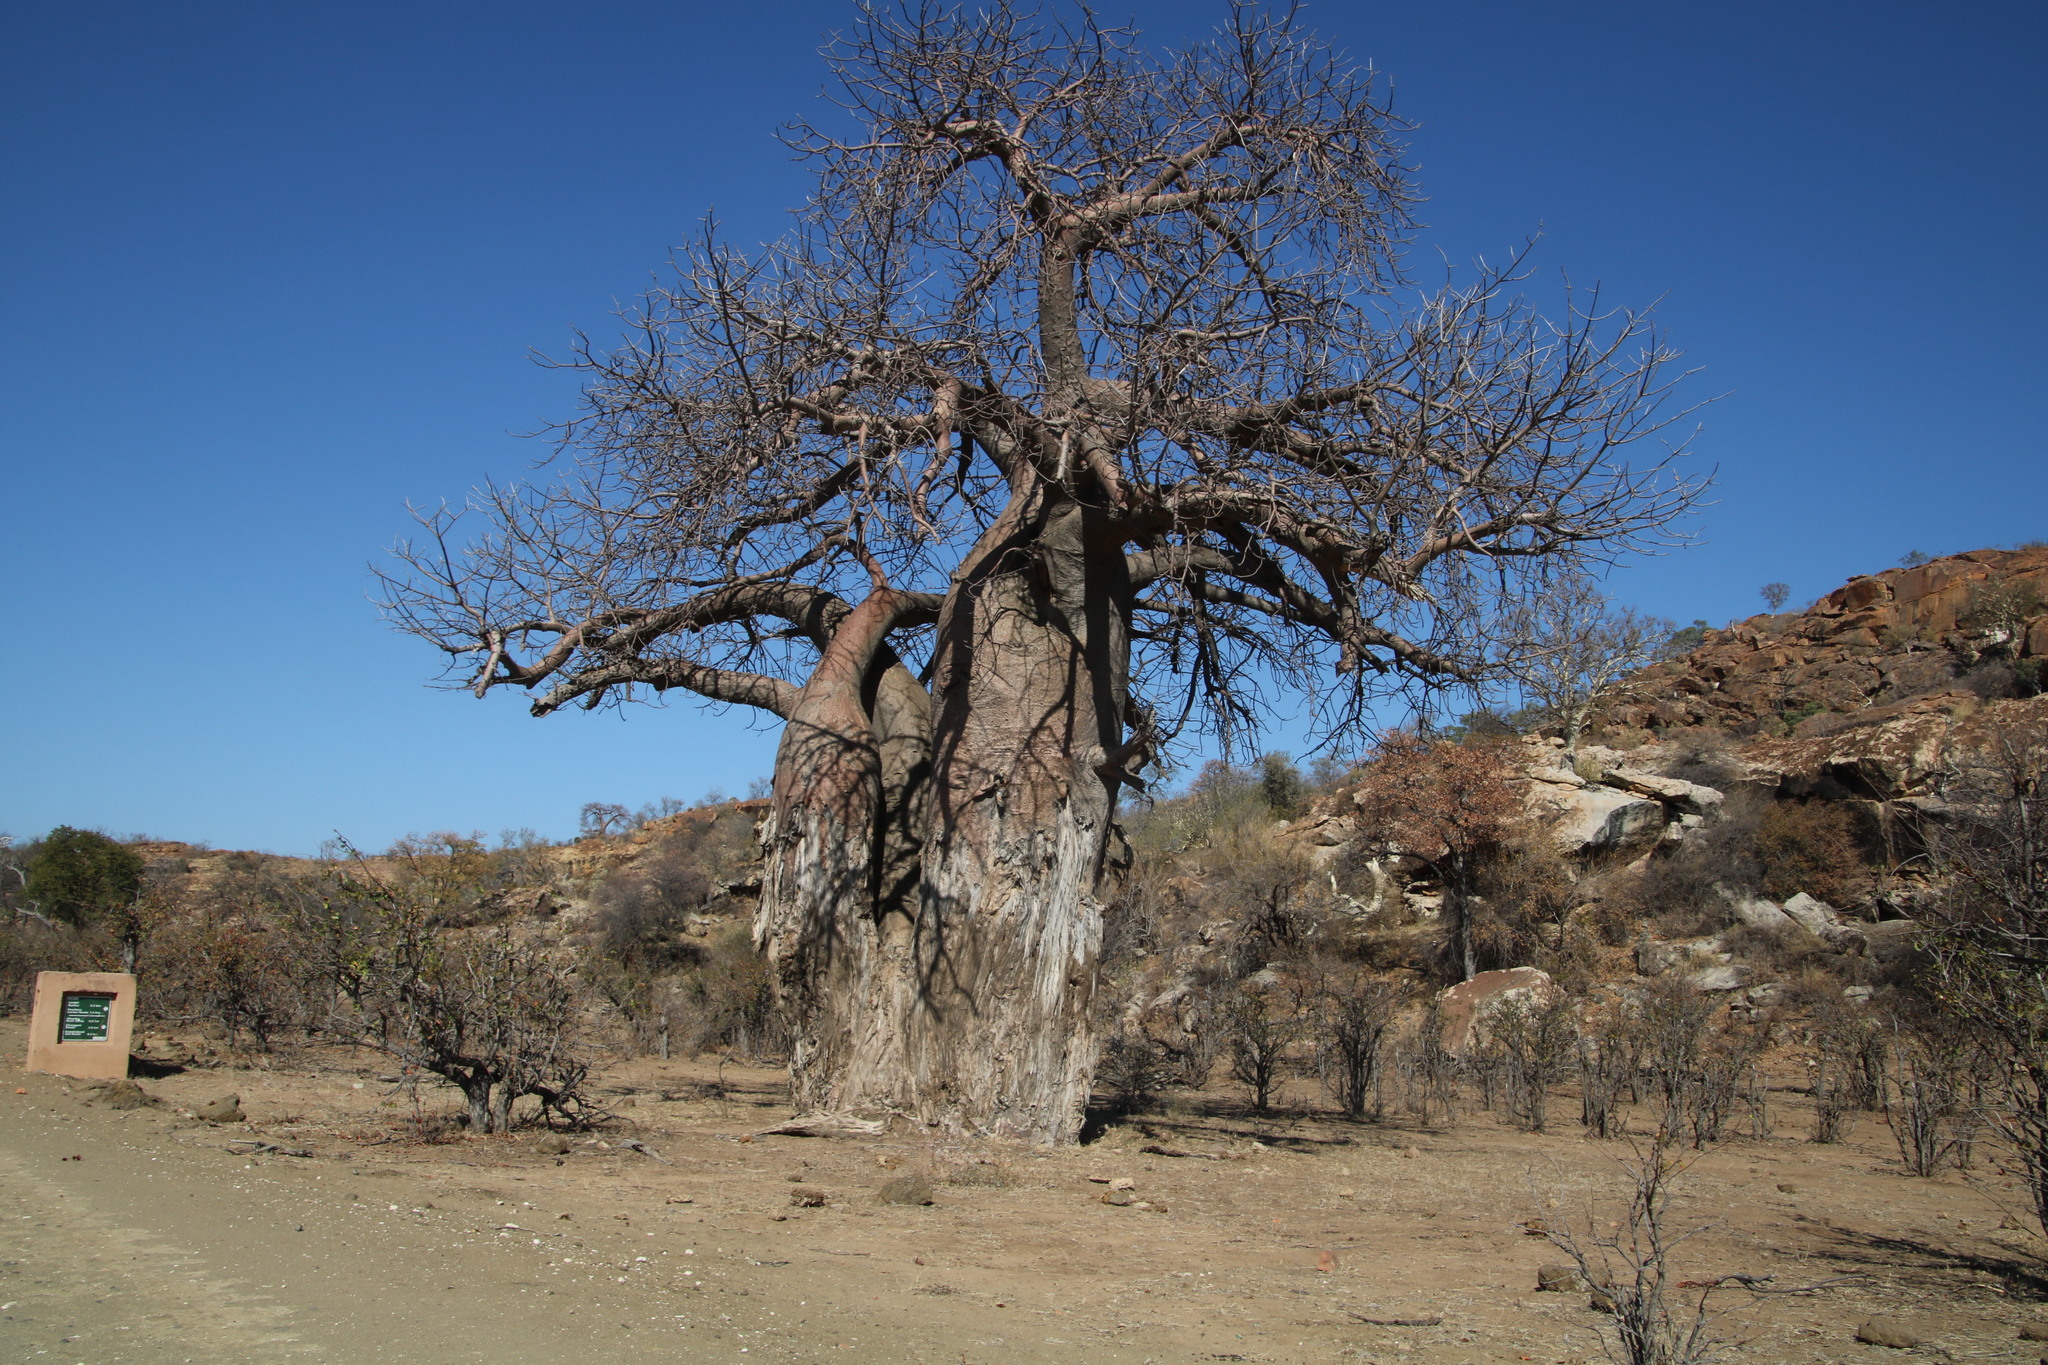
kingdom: Plantae
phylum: Tracheophyta
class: Magnoliopsida
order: Malvales
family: Malvaceae
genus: Adansonia
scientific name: Adansonia digitata
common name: Dead-rat-tree
